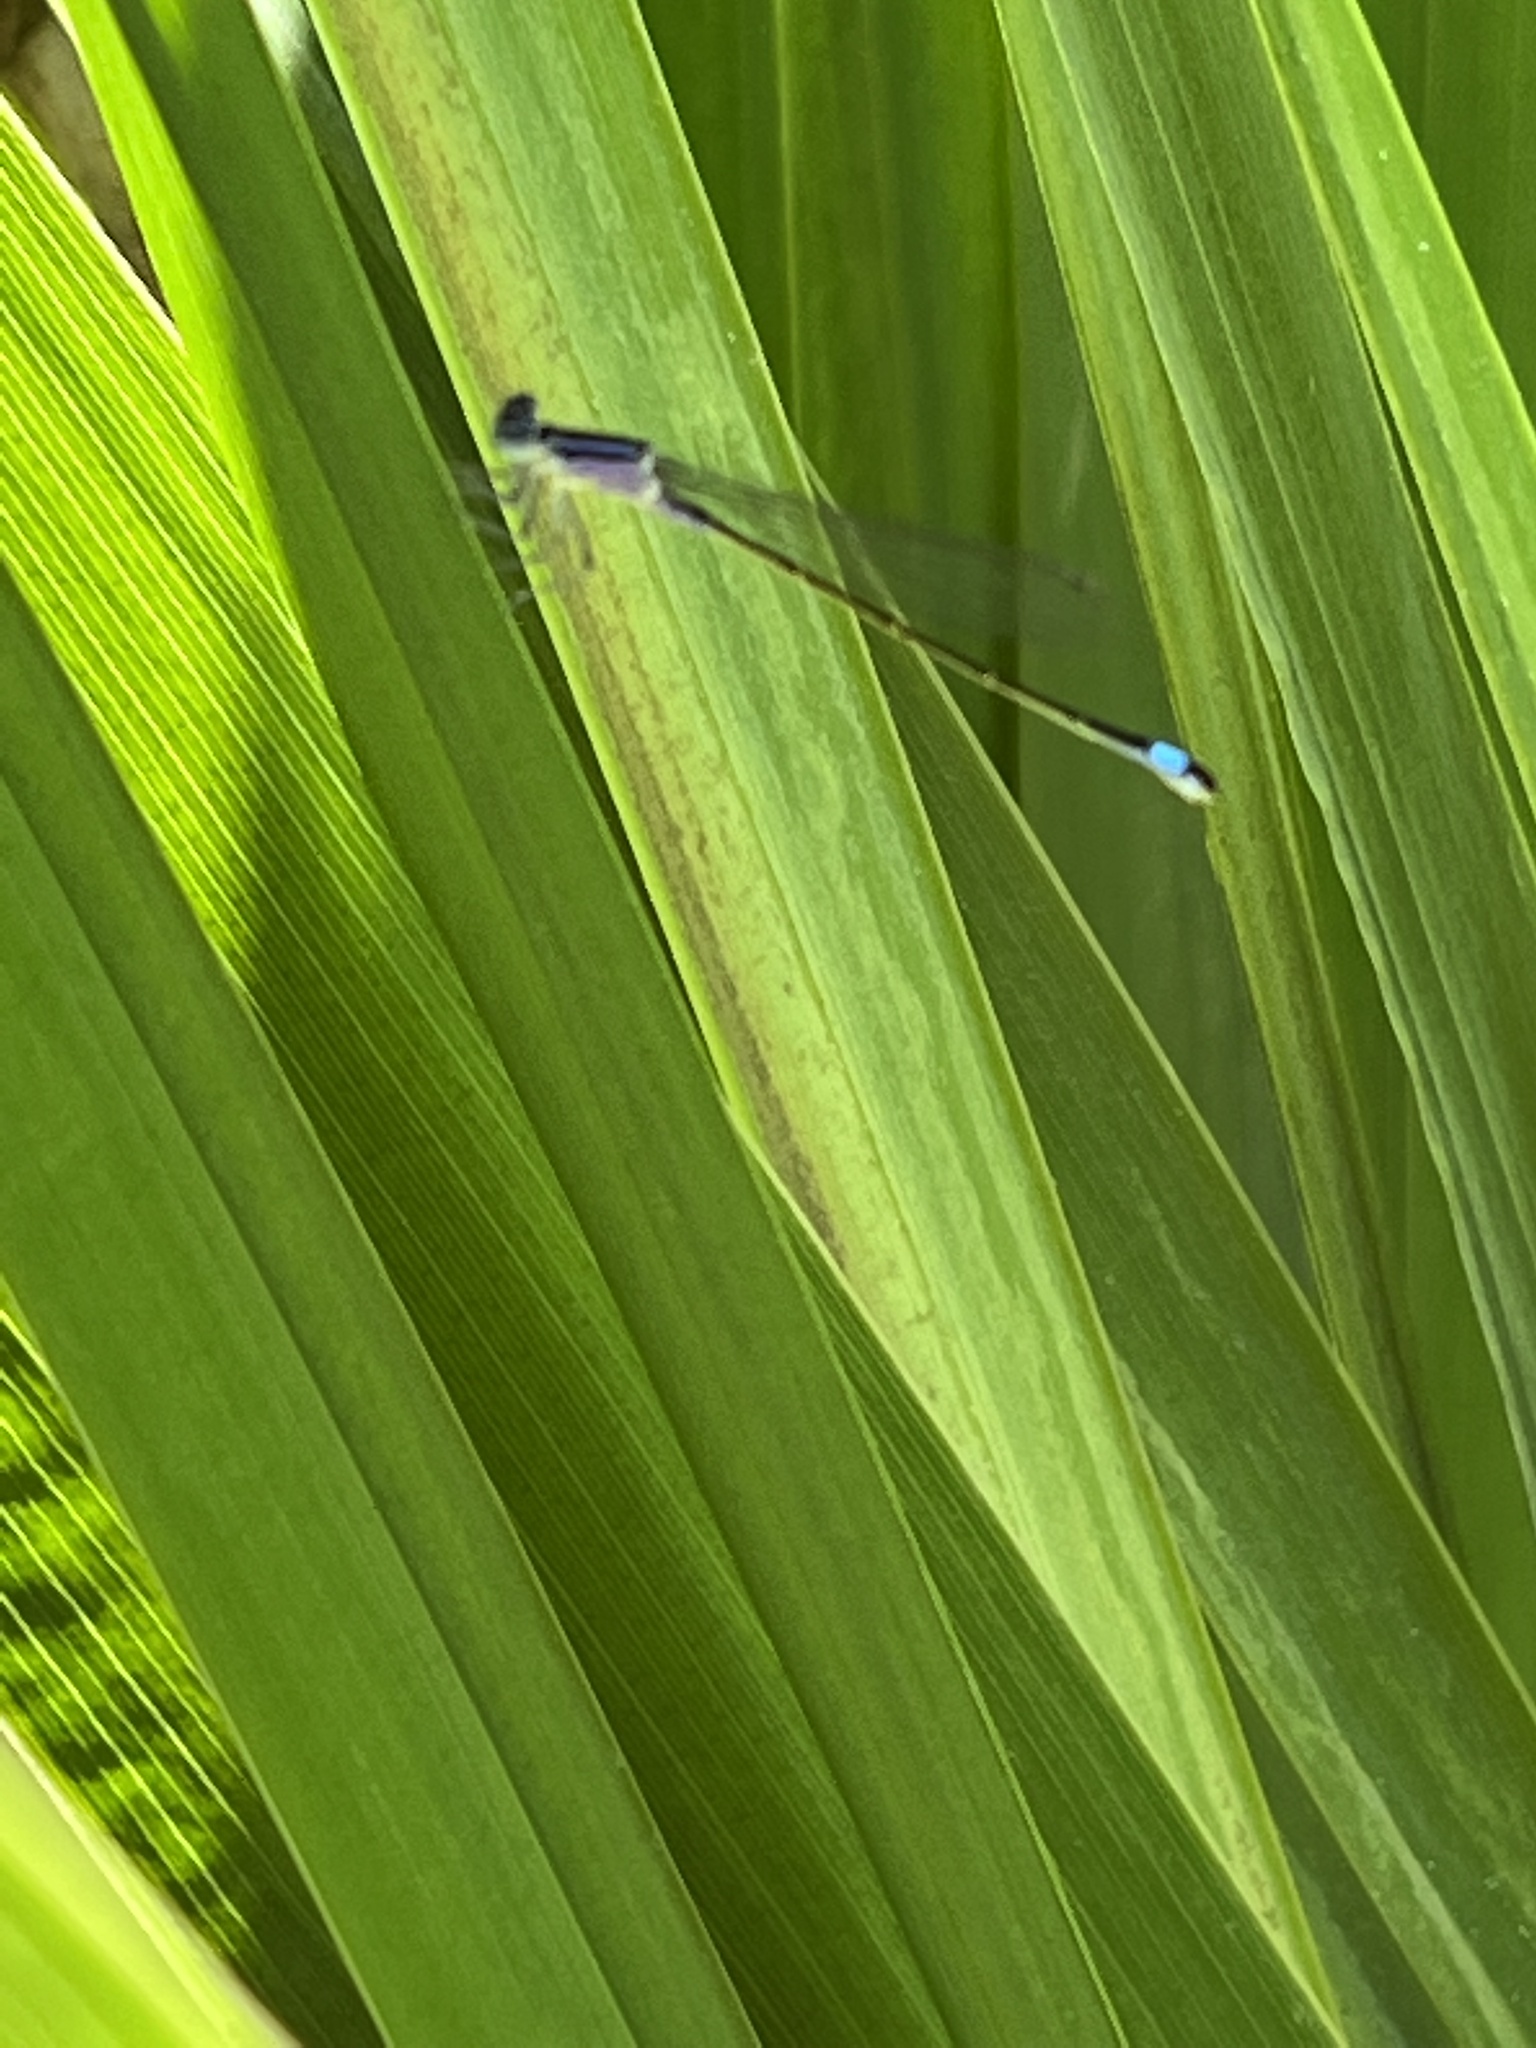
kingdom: Animalia
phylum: Arthropoda
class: Insecta
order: Odonata
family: Coenagrionidae
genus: Ischnura
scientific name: Ischnura elegans
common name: Blue-tailed damselfly
